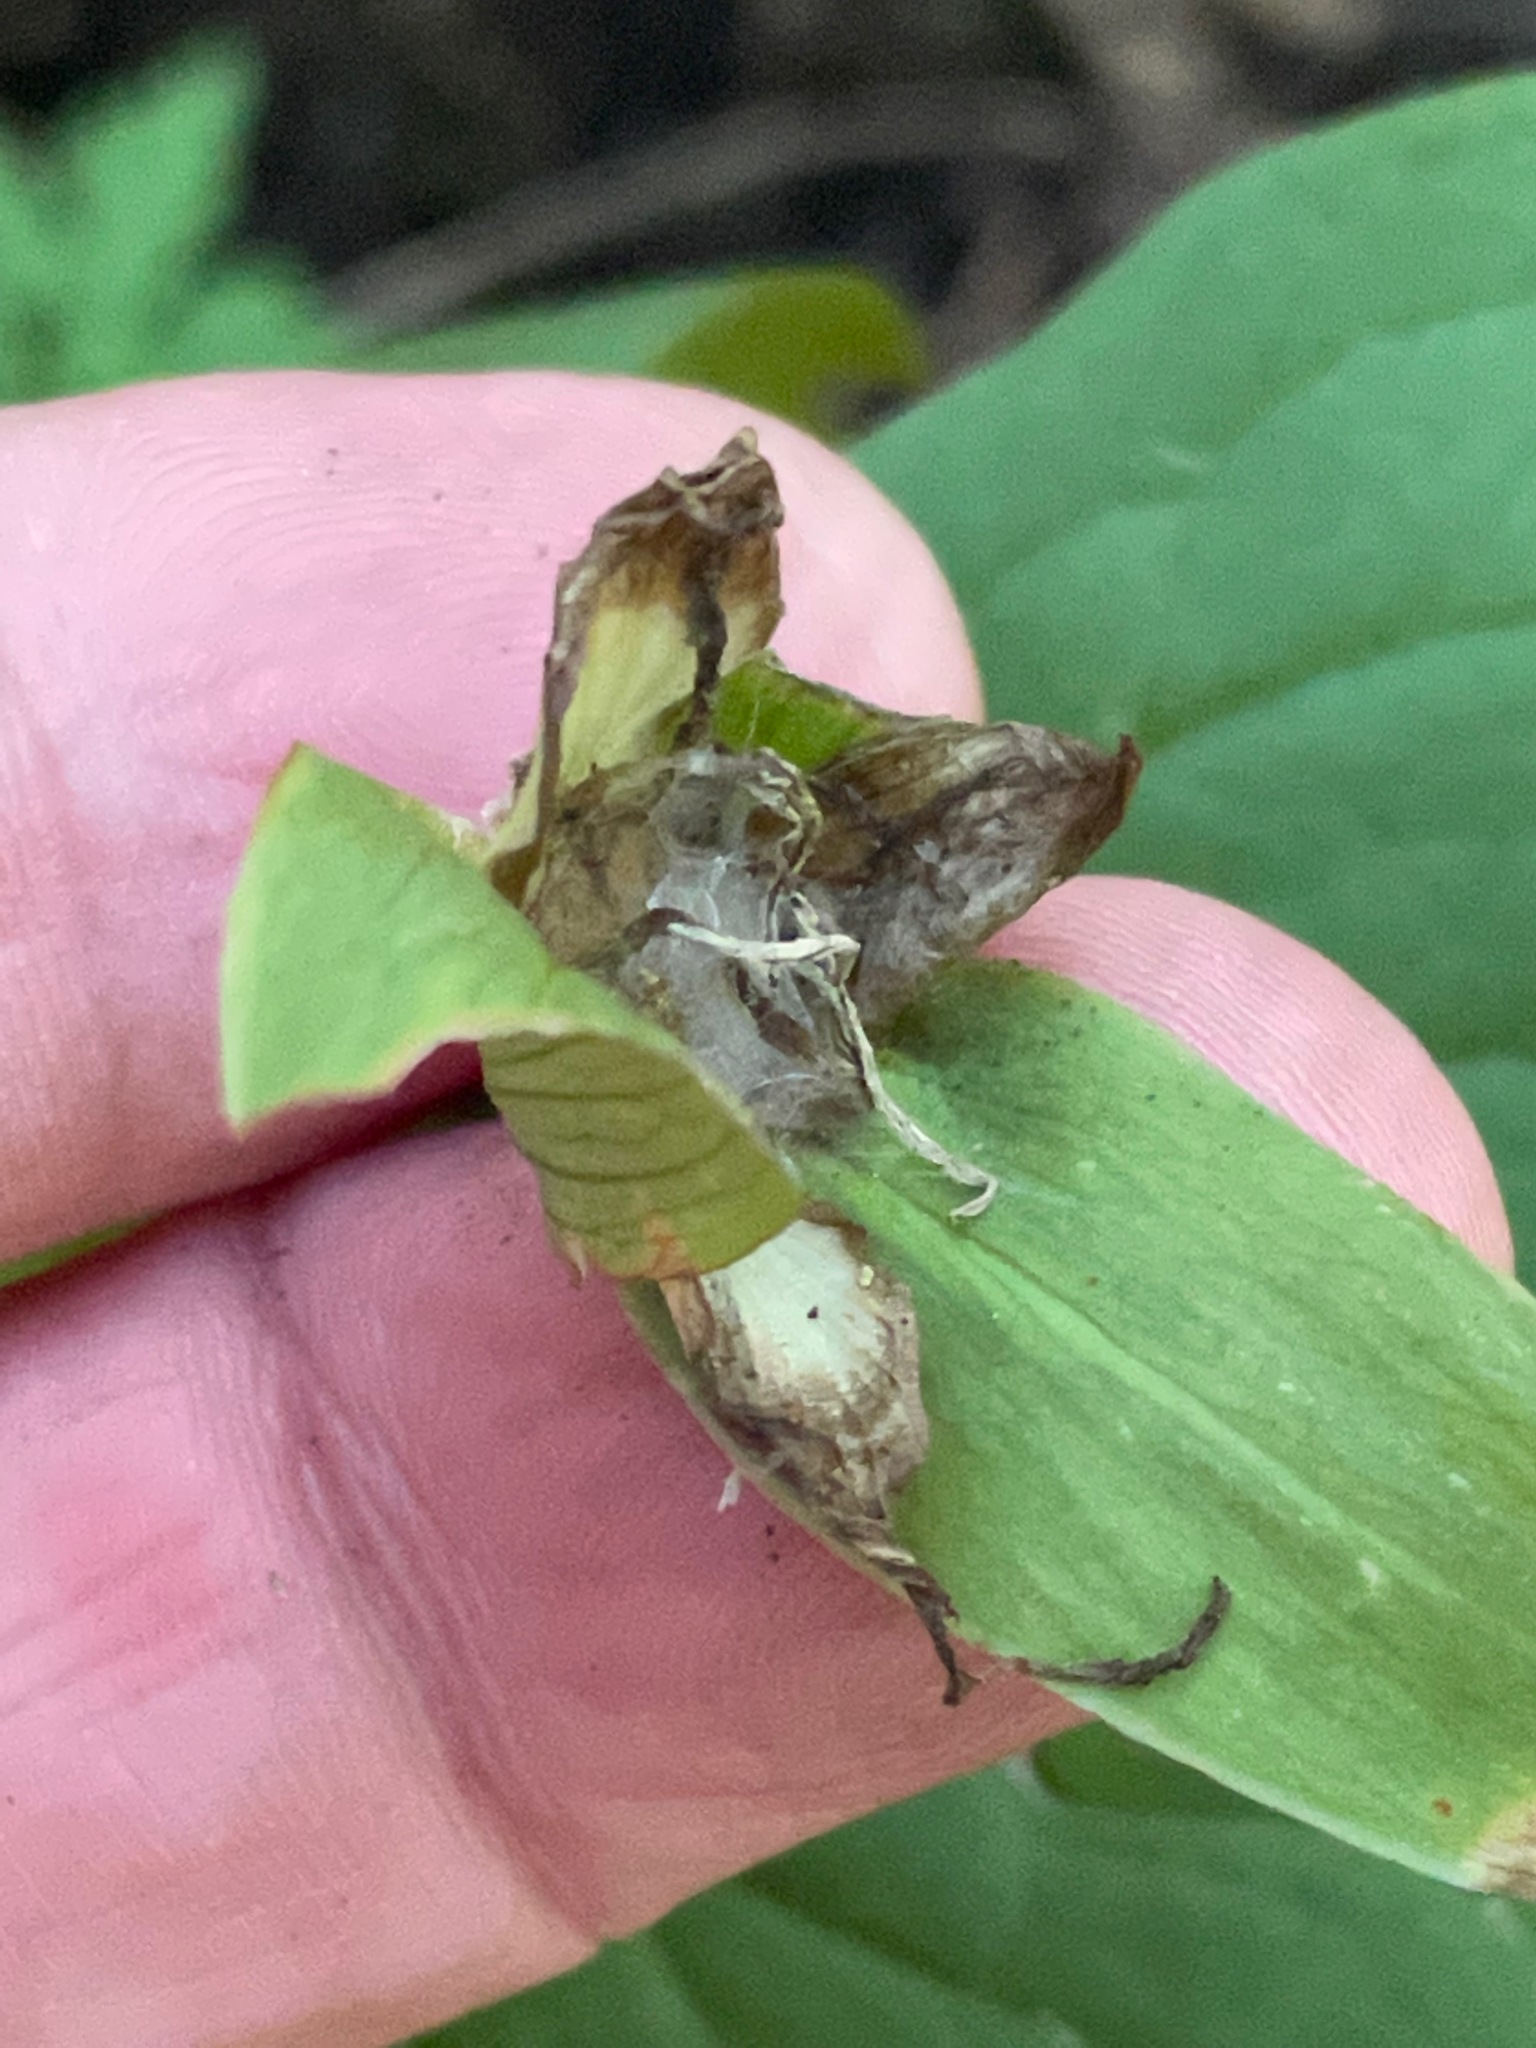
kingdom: Plantae
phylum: Tracheophyta
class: Liliopsida
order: Liliales
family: Melanthiaceae
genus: Trillium
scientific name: Trillium grandiflorum
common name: Great white trillium
